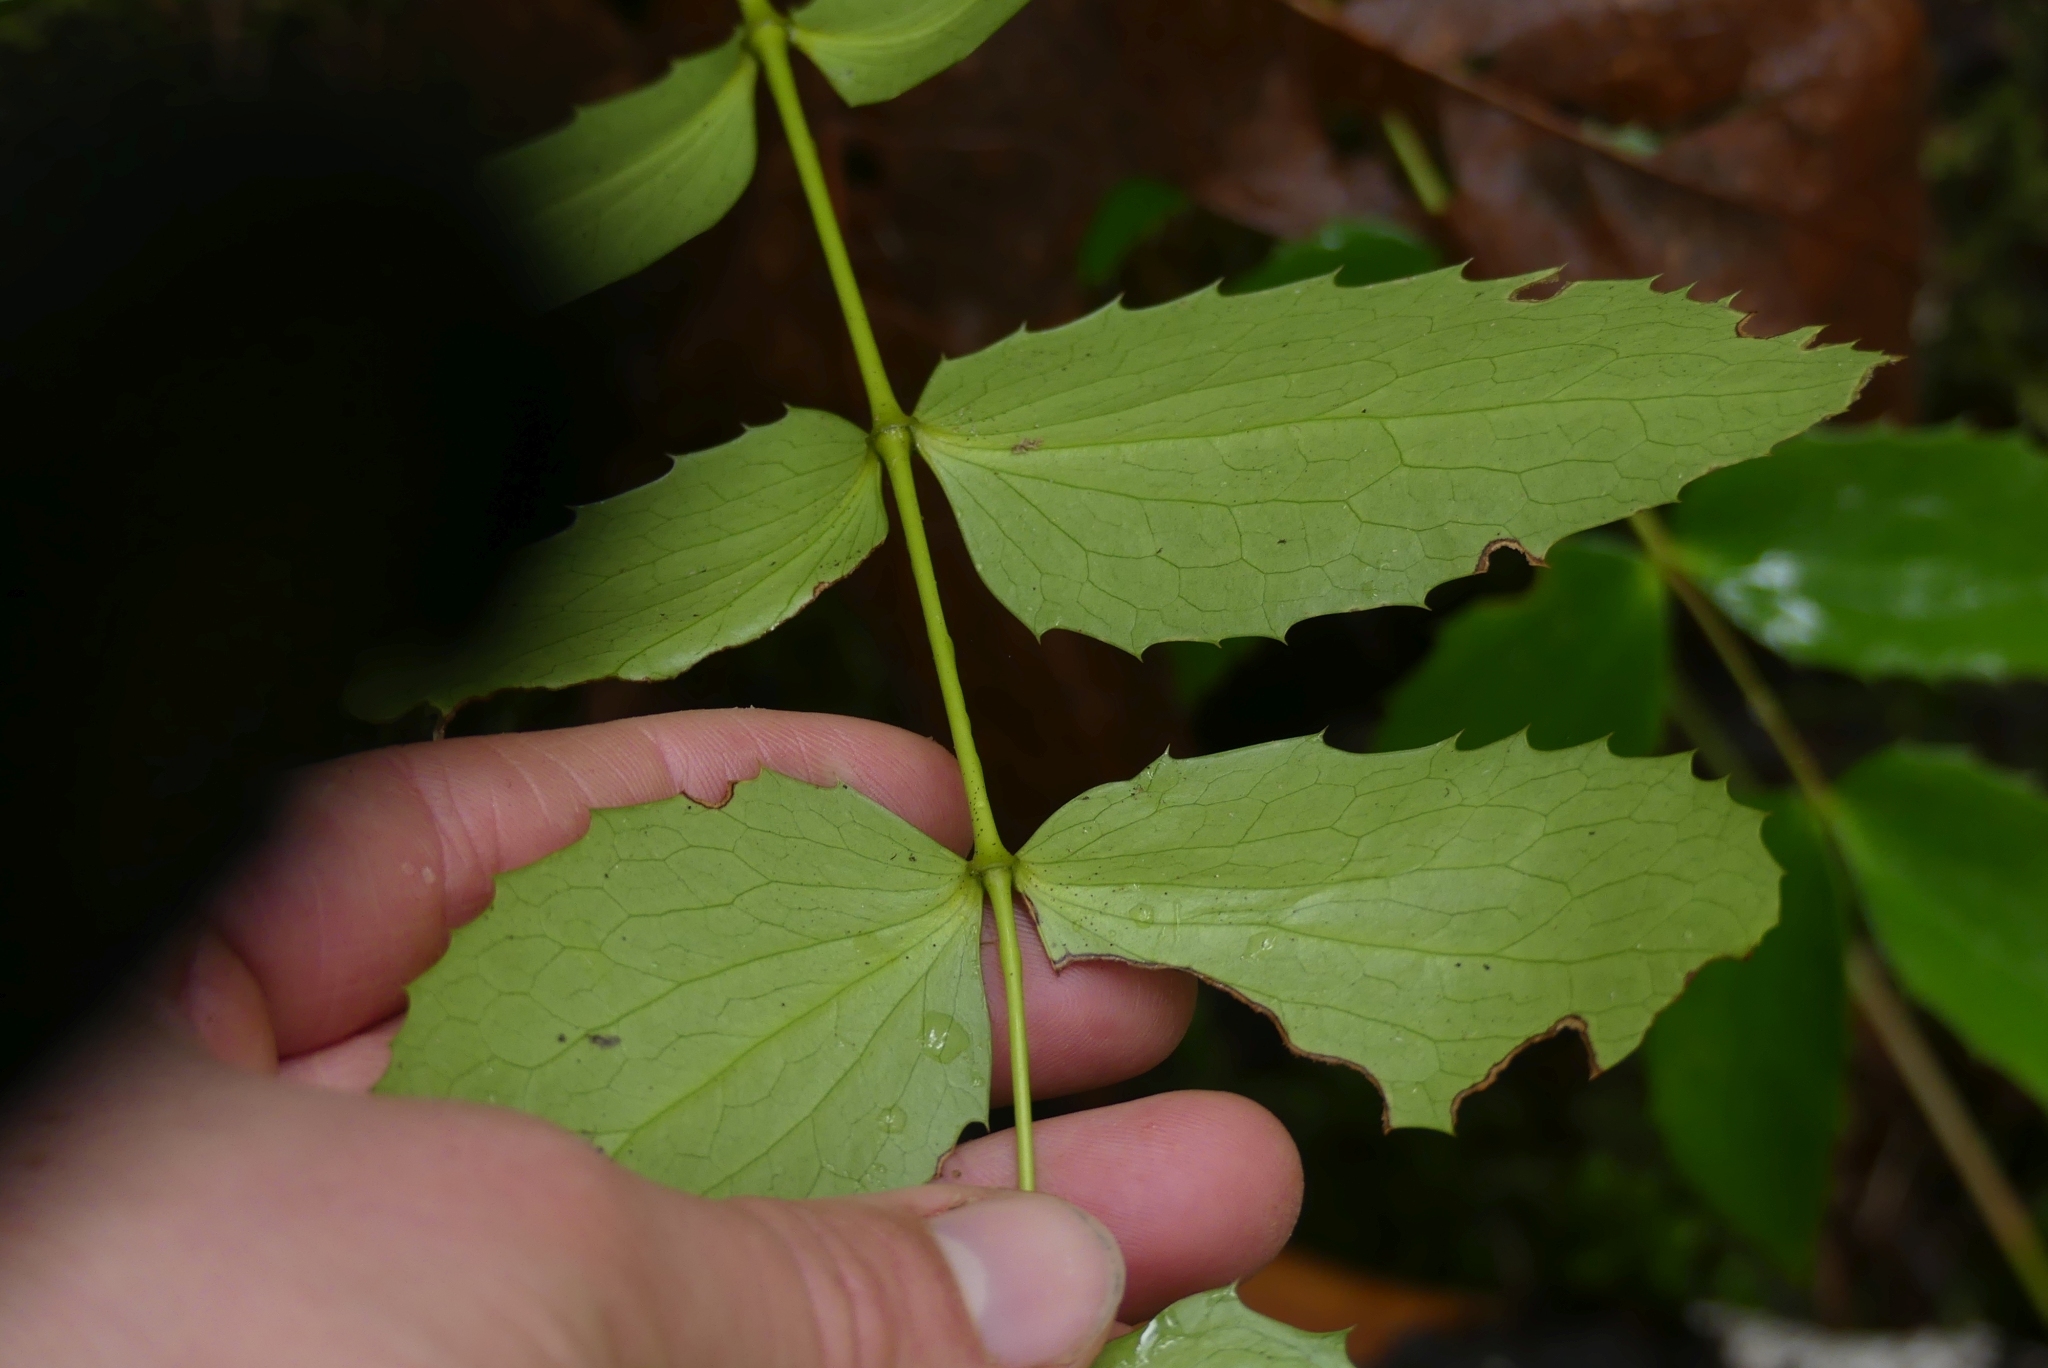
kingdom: Plantae
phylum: Tracheophyta
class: Magnoliopsida
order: Ranunculales
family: Berberidaceae
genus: Mahonia
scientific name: Mahonia nervosa
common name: Cascade oregon-grape
